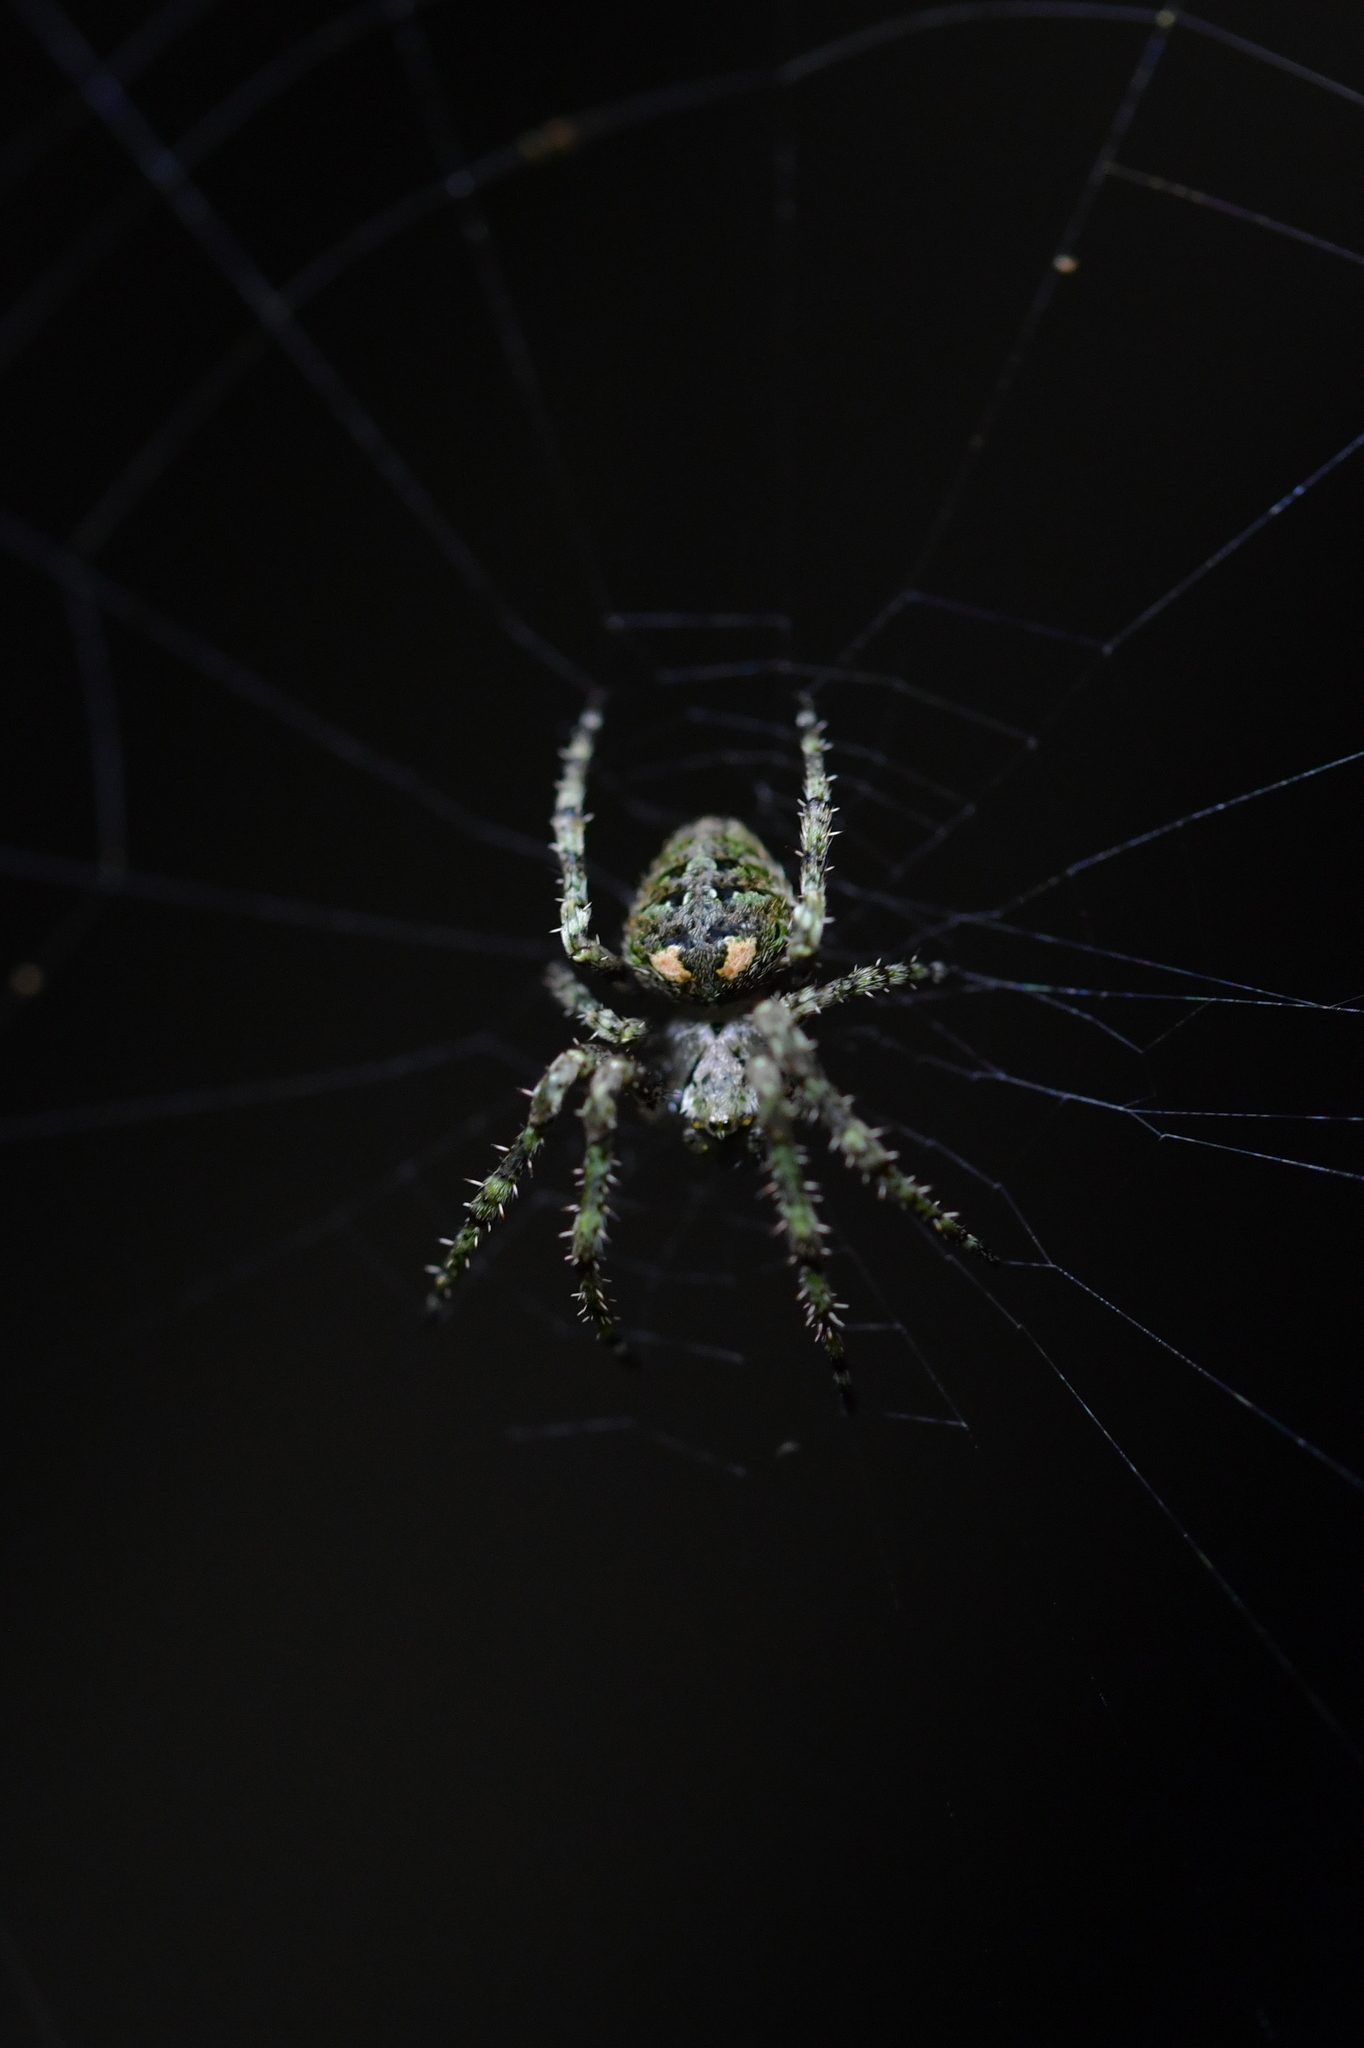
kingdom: Animalia
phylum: Arthropoda
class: Arachnida
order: Araneae
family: Araneidae
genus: Cryptaranea
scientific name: Cryptaranea subcompta
